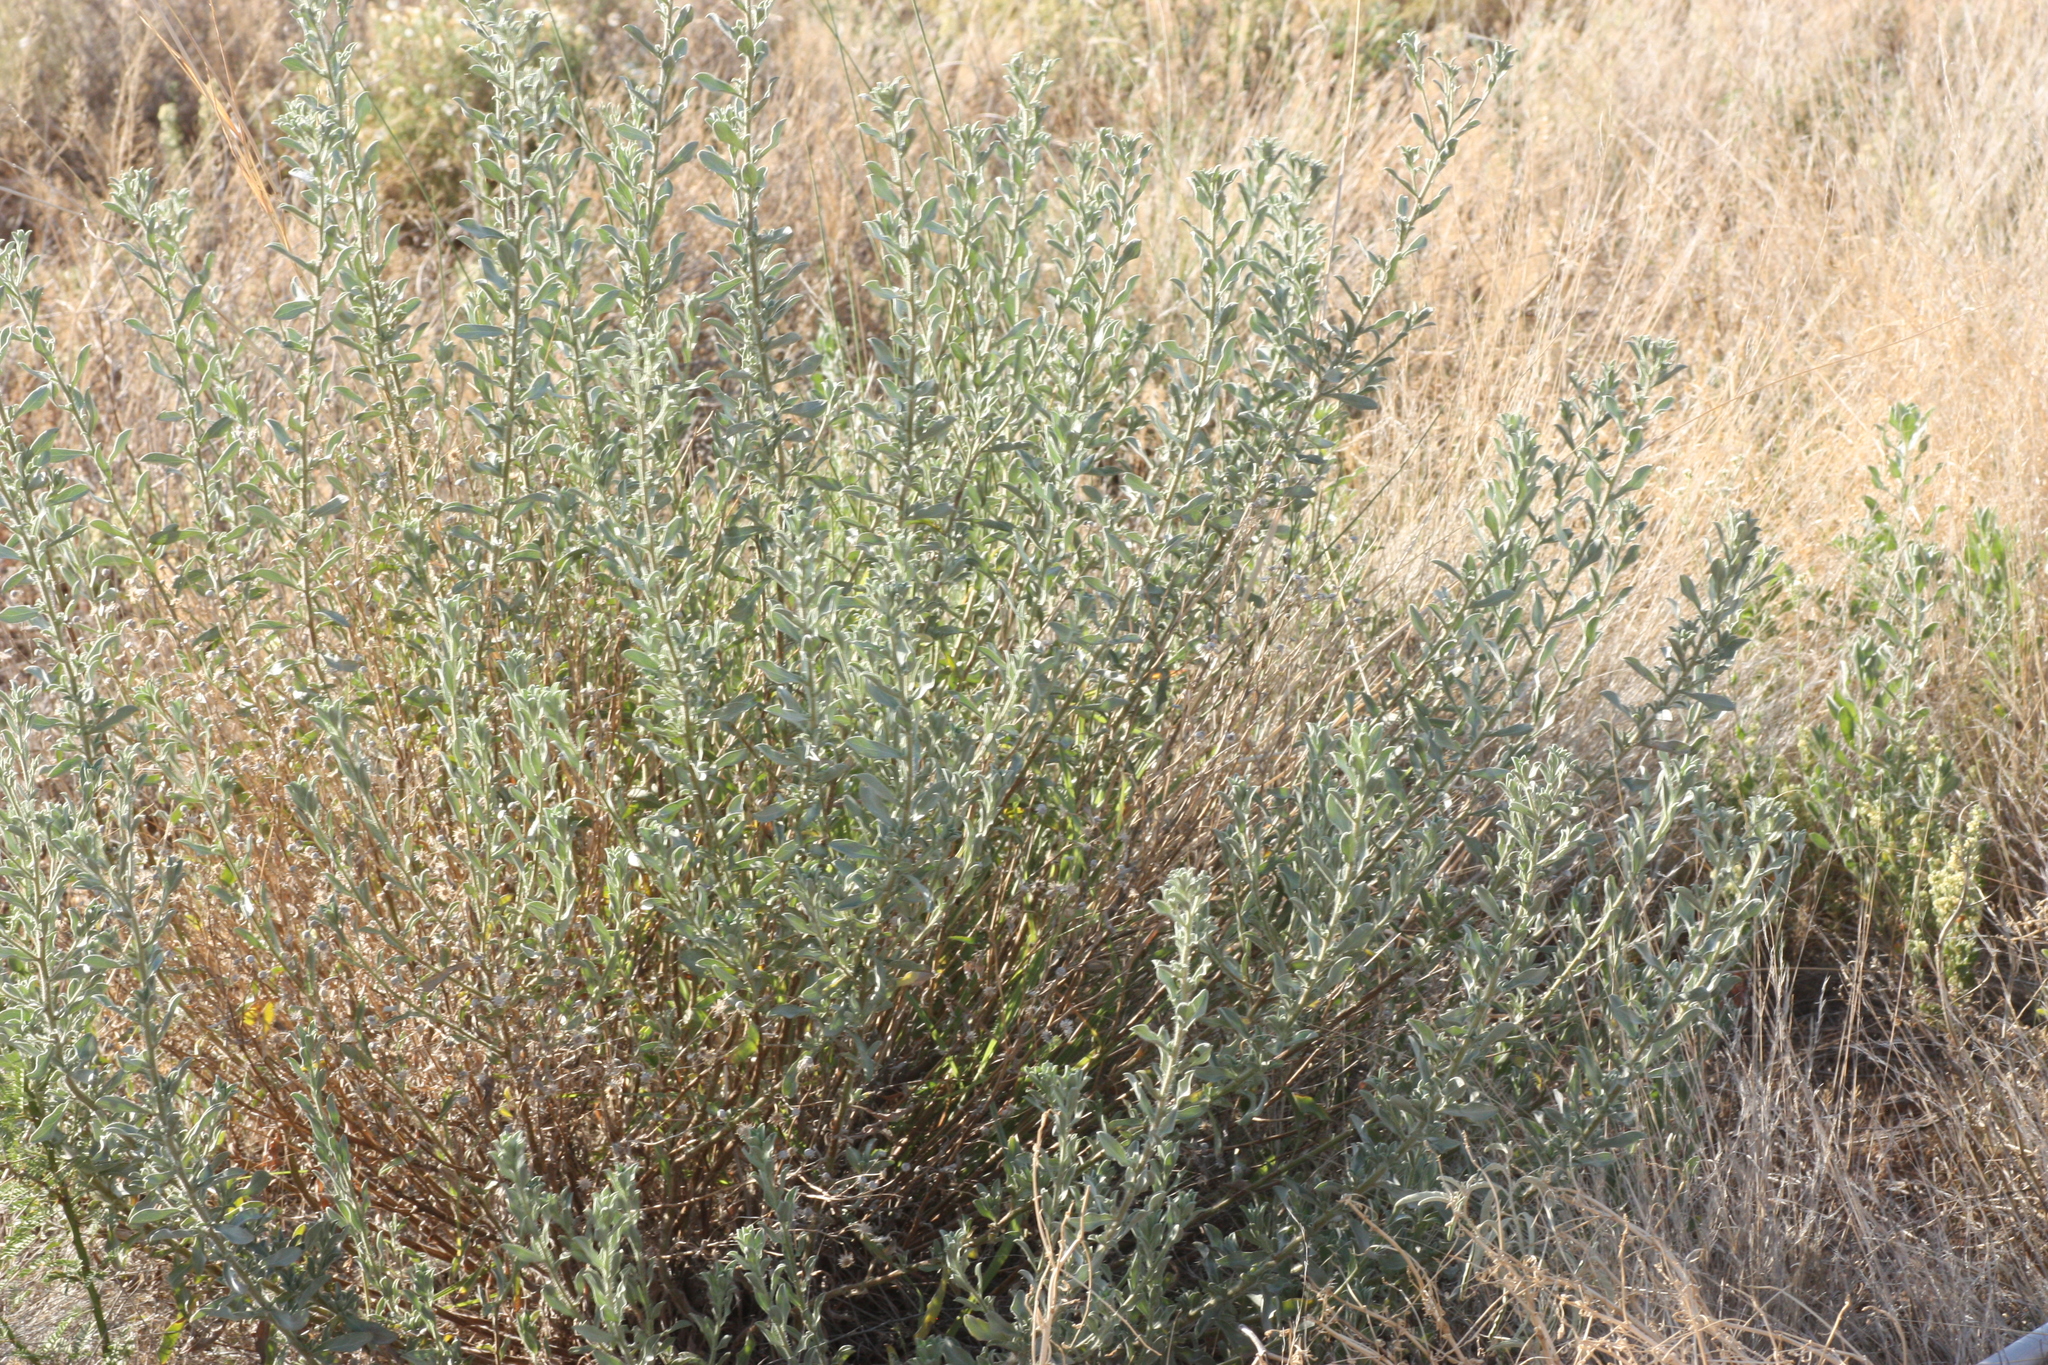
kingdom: Plantae
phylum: Tracheophyta
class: Magnoliopsida
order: Asterales
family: Asteraceae
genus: Heterotheca
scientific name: Heterotheca zionensis
